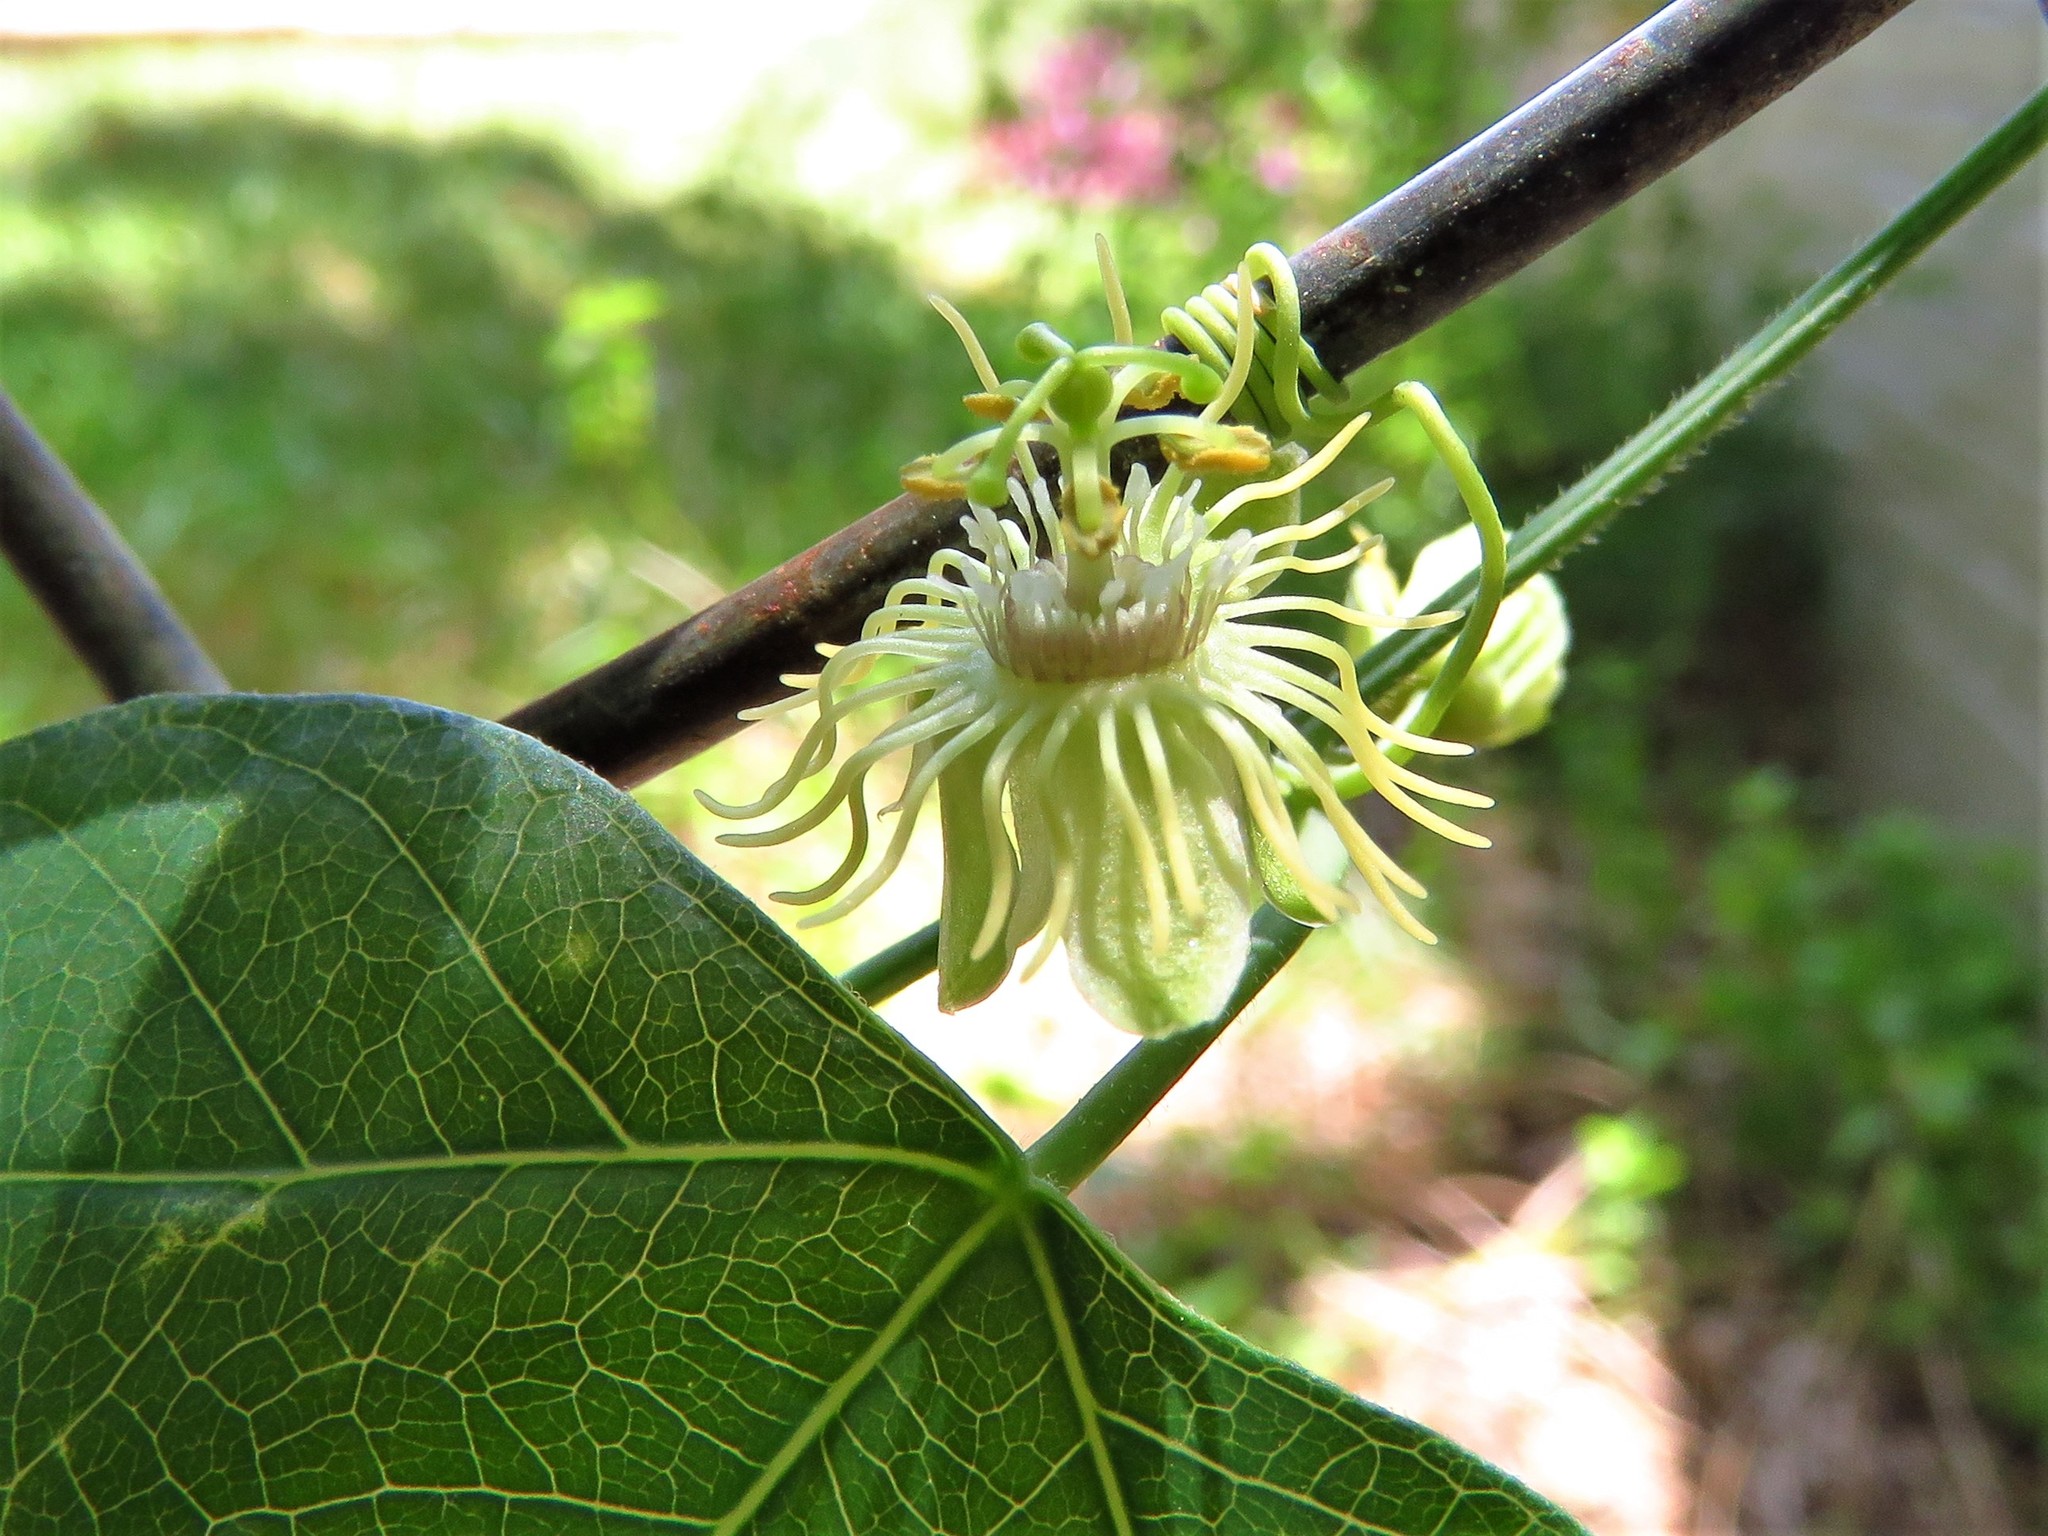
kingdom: Plantae
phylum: Tracheophyta
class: Magnoliopsida
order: Malpighiales
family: Passifloraceae
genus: Passiflora
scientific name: Passiflora lutea
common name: Yellow passionflower
